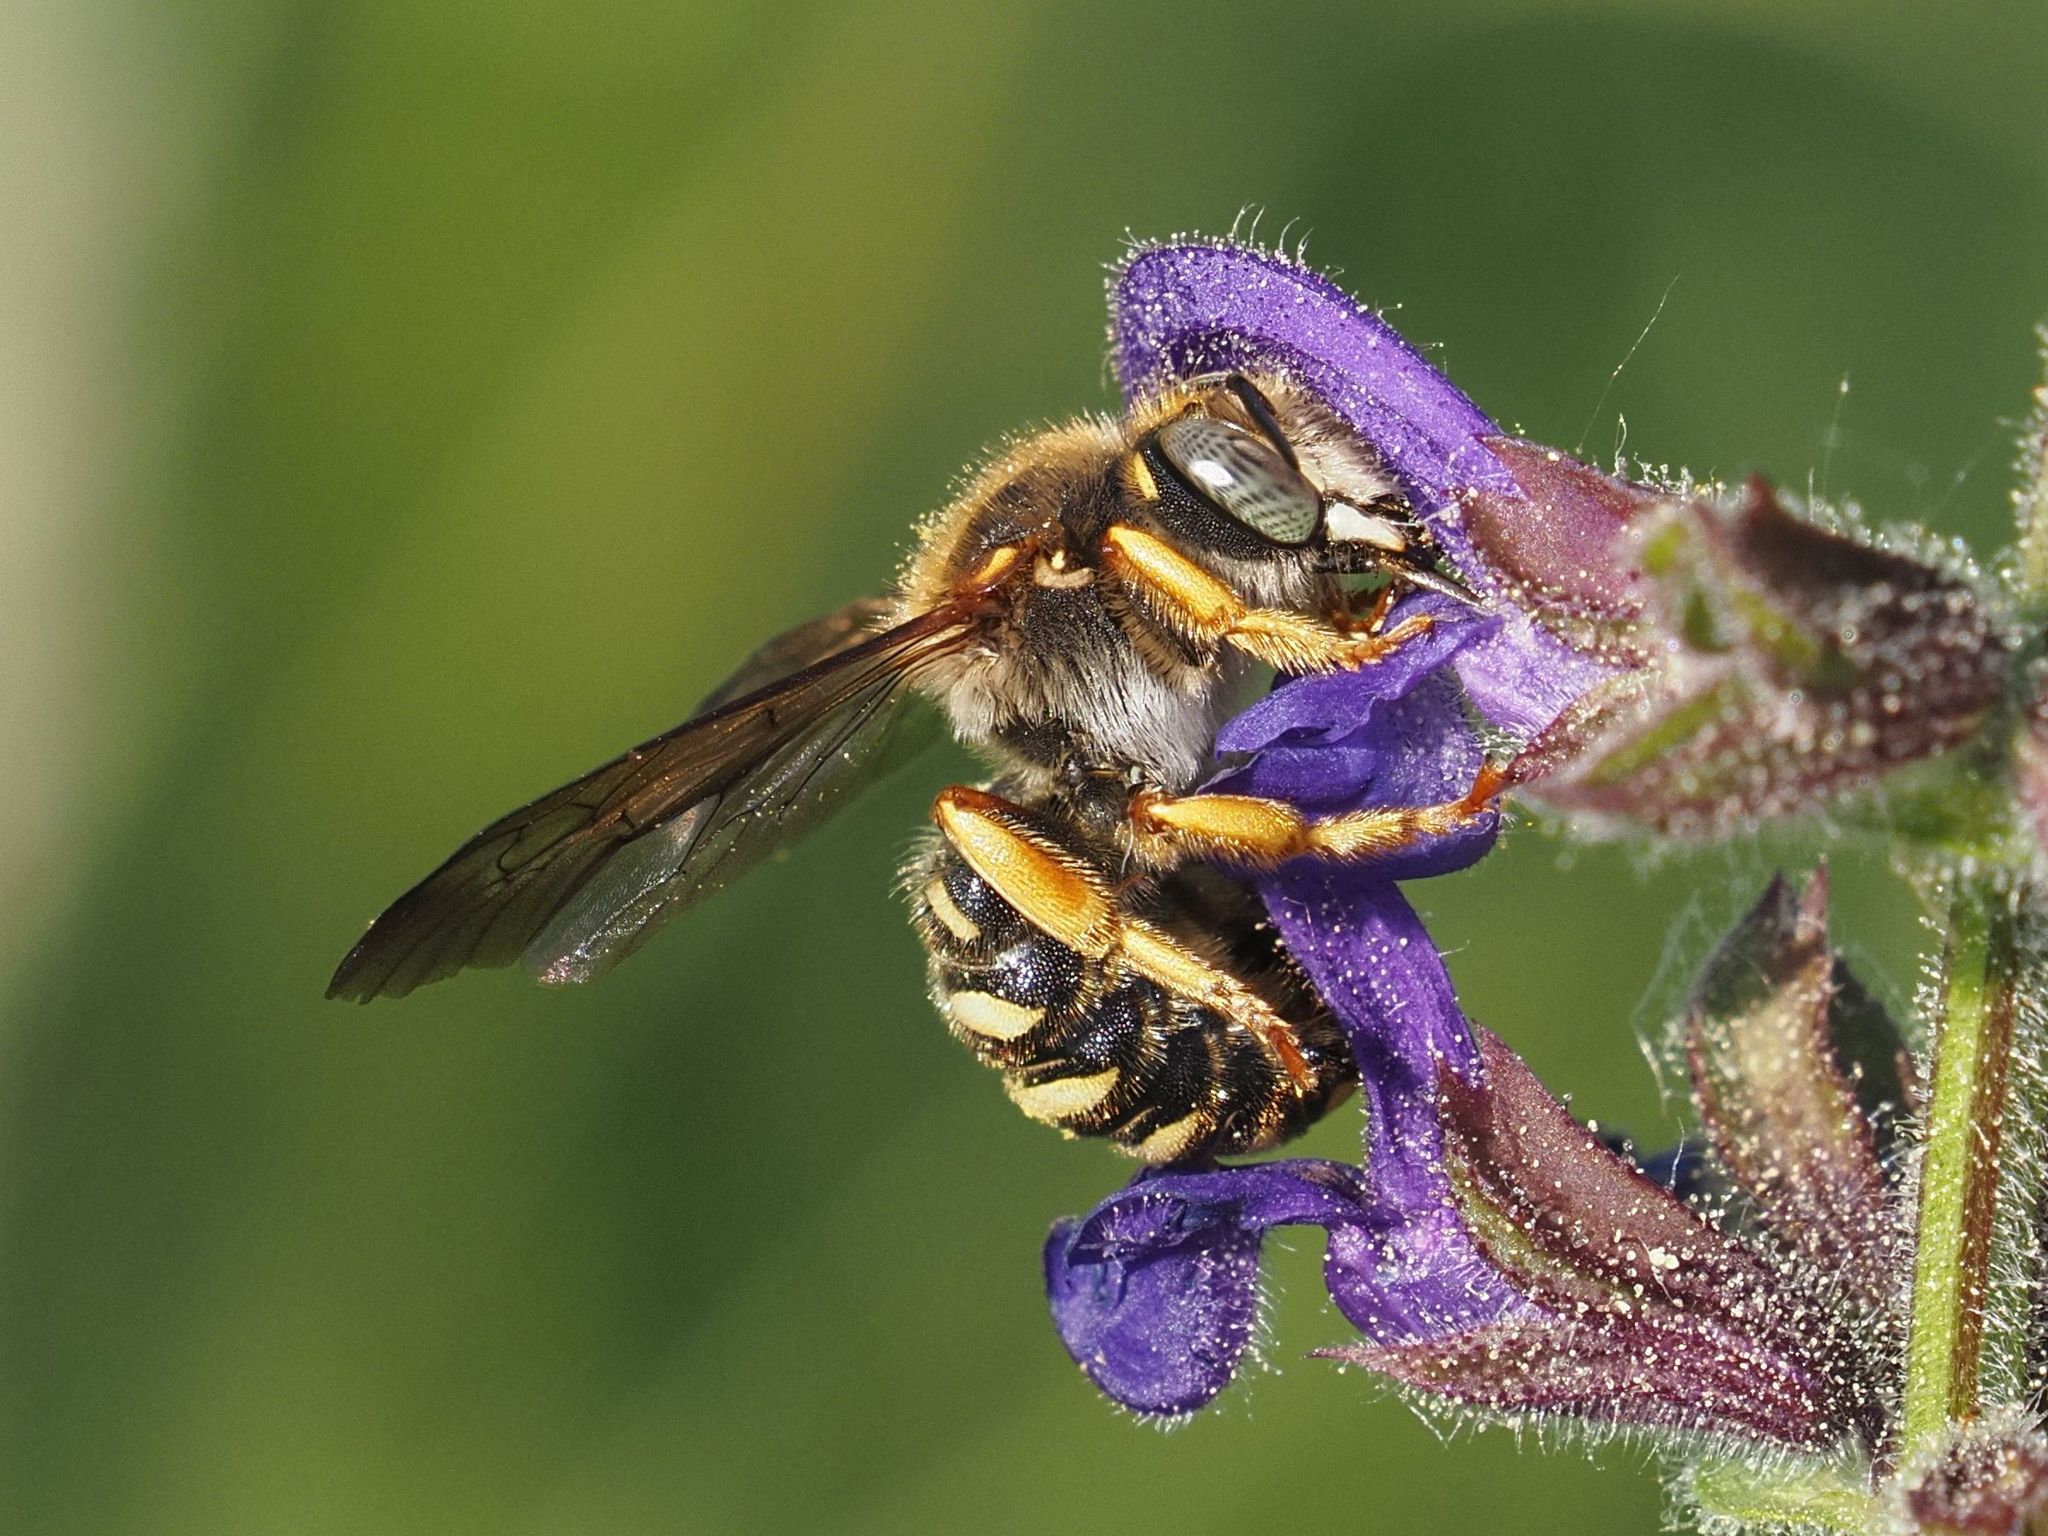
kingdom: Animalia
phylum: Arthropoda
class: Insecta
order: Hymenoptera
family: Megachilidae
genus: Rhodanthidium
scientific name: Rhodanthidium septemdentatum
